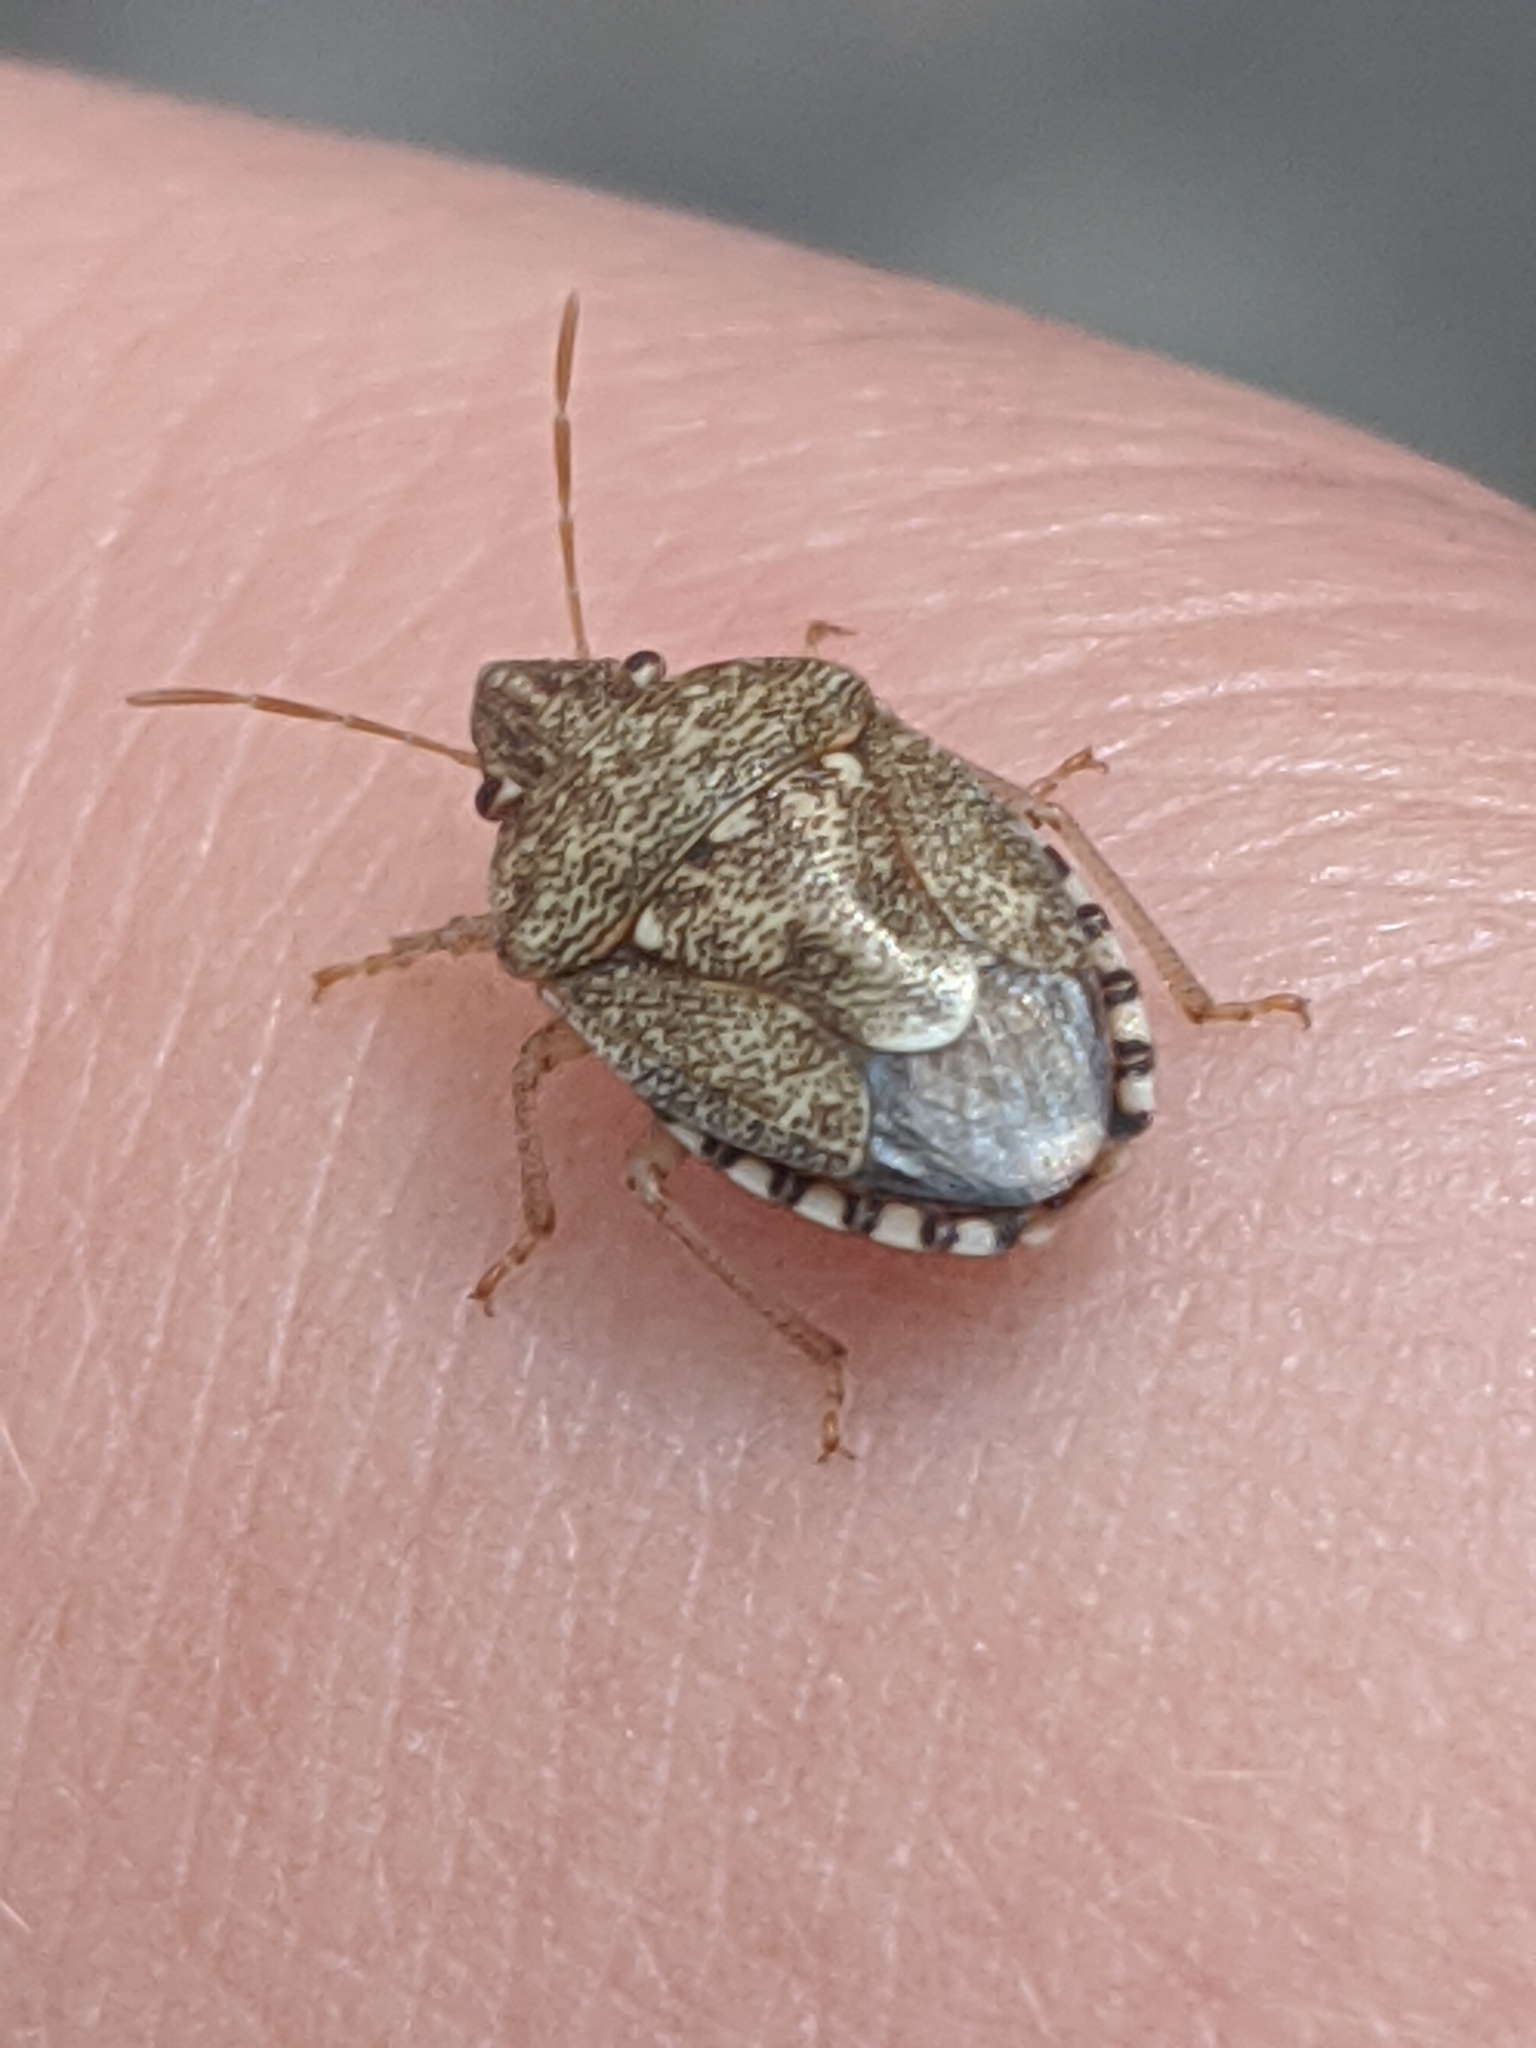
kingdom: Animalia
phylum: Arthropoda
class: Insecta
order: Hemiptera
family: Pentatomidae
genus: Staria
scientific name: Staria lunata
